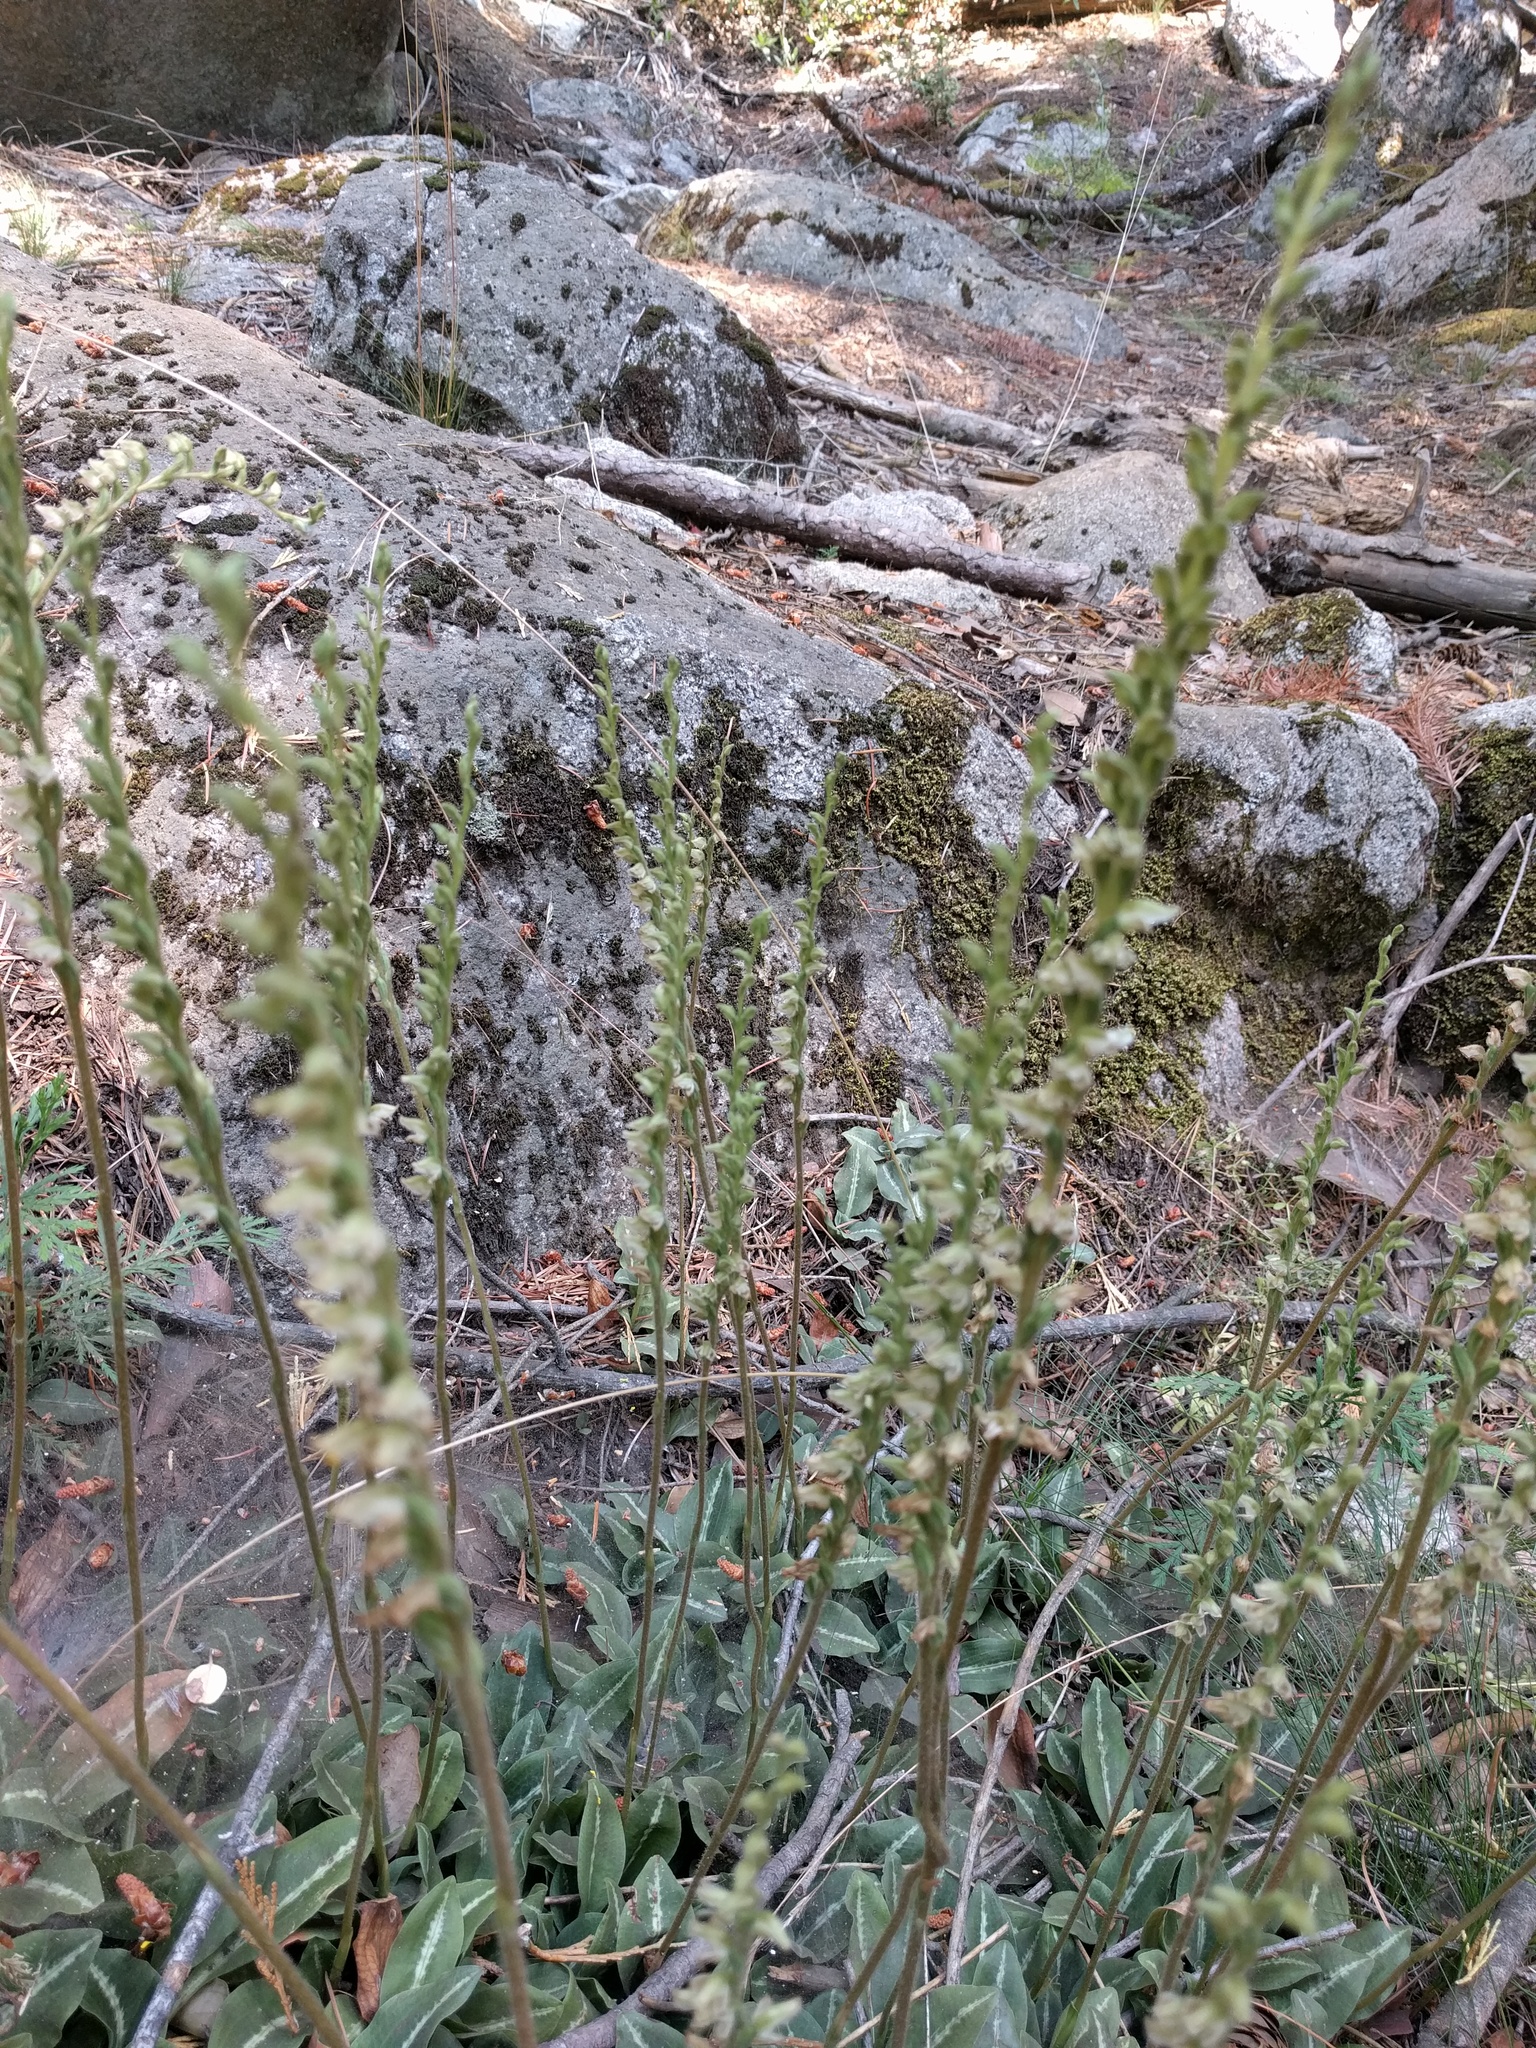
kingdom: Plantae
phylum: Tracheophyta
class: Liliopsida
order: Asparagales
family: Orchidaceae
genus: Goodyera
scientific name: Goodyera oblongifolia
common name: Giant rattlesnake-plantain
